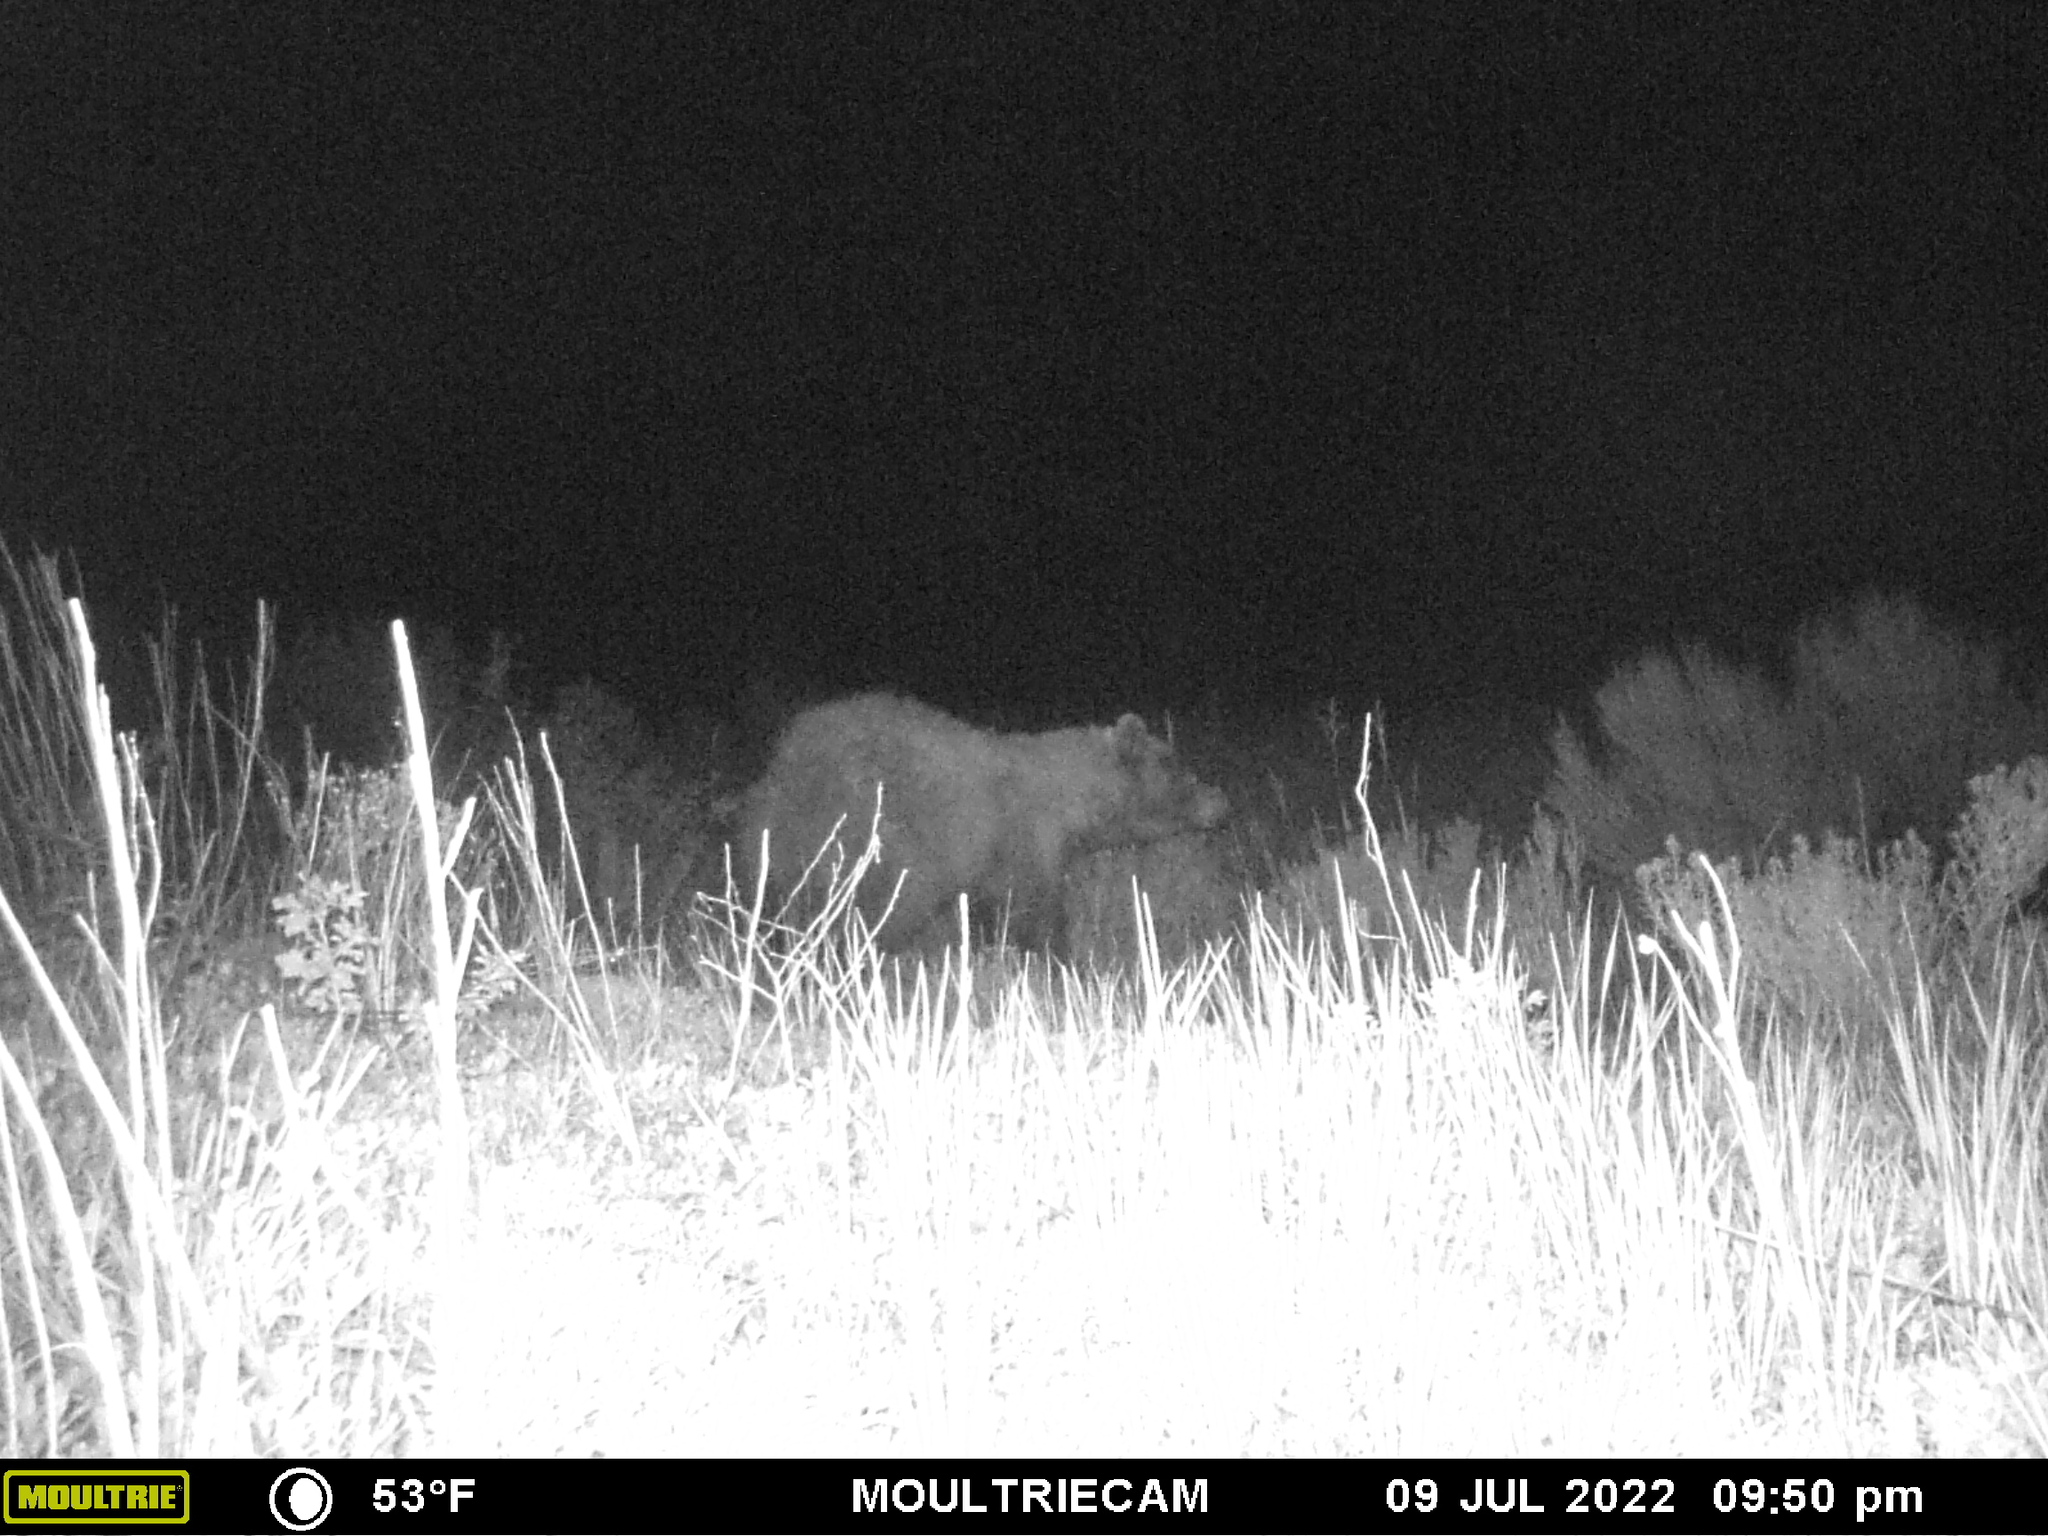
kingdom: Animalia
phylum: Chordata
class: Mammalia
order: Carnivora
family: Ursidae
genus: Ursus
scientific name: Ursus americanus
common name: American black bear
